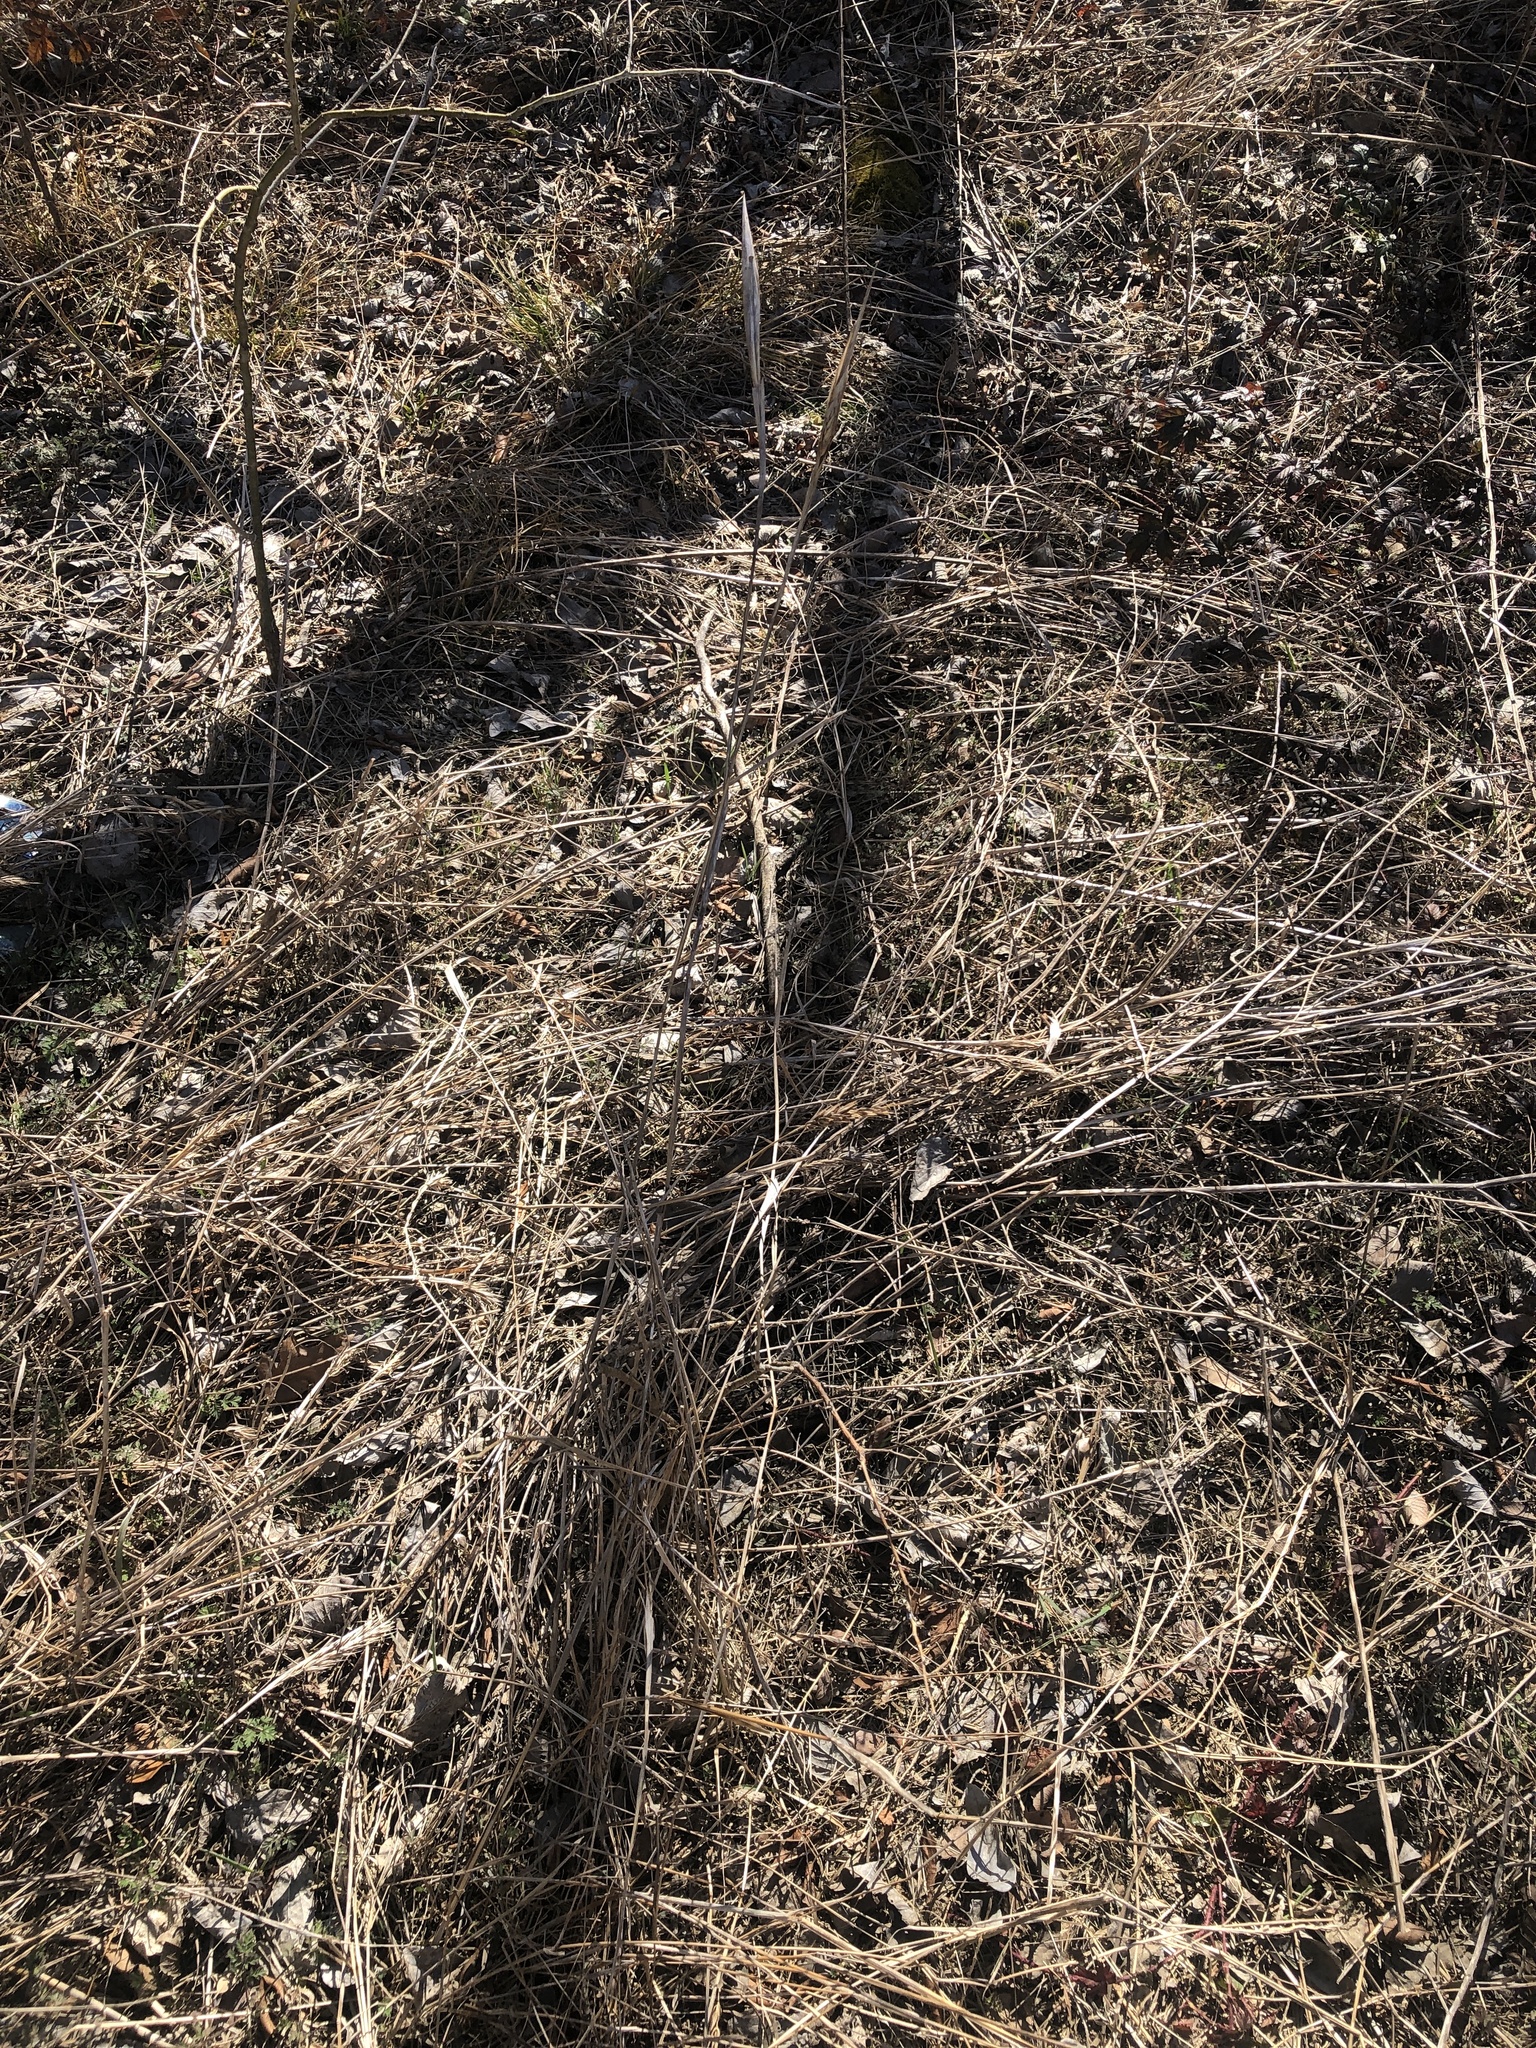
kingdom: Plantae
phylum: Tracheophyta
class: Liliopsida
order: Poales
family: Poaceae
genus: Elymus
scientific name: Elymus virginicus
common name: Common eastern wildrye
